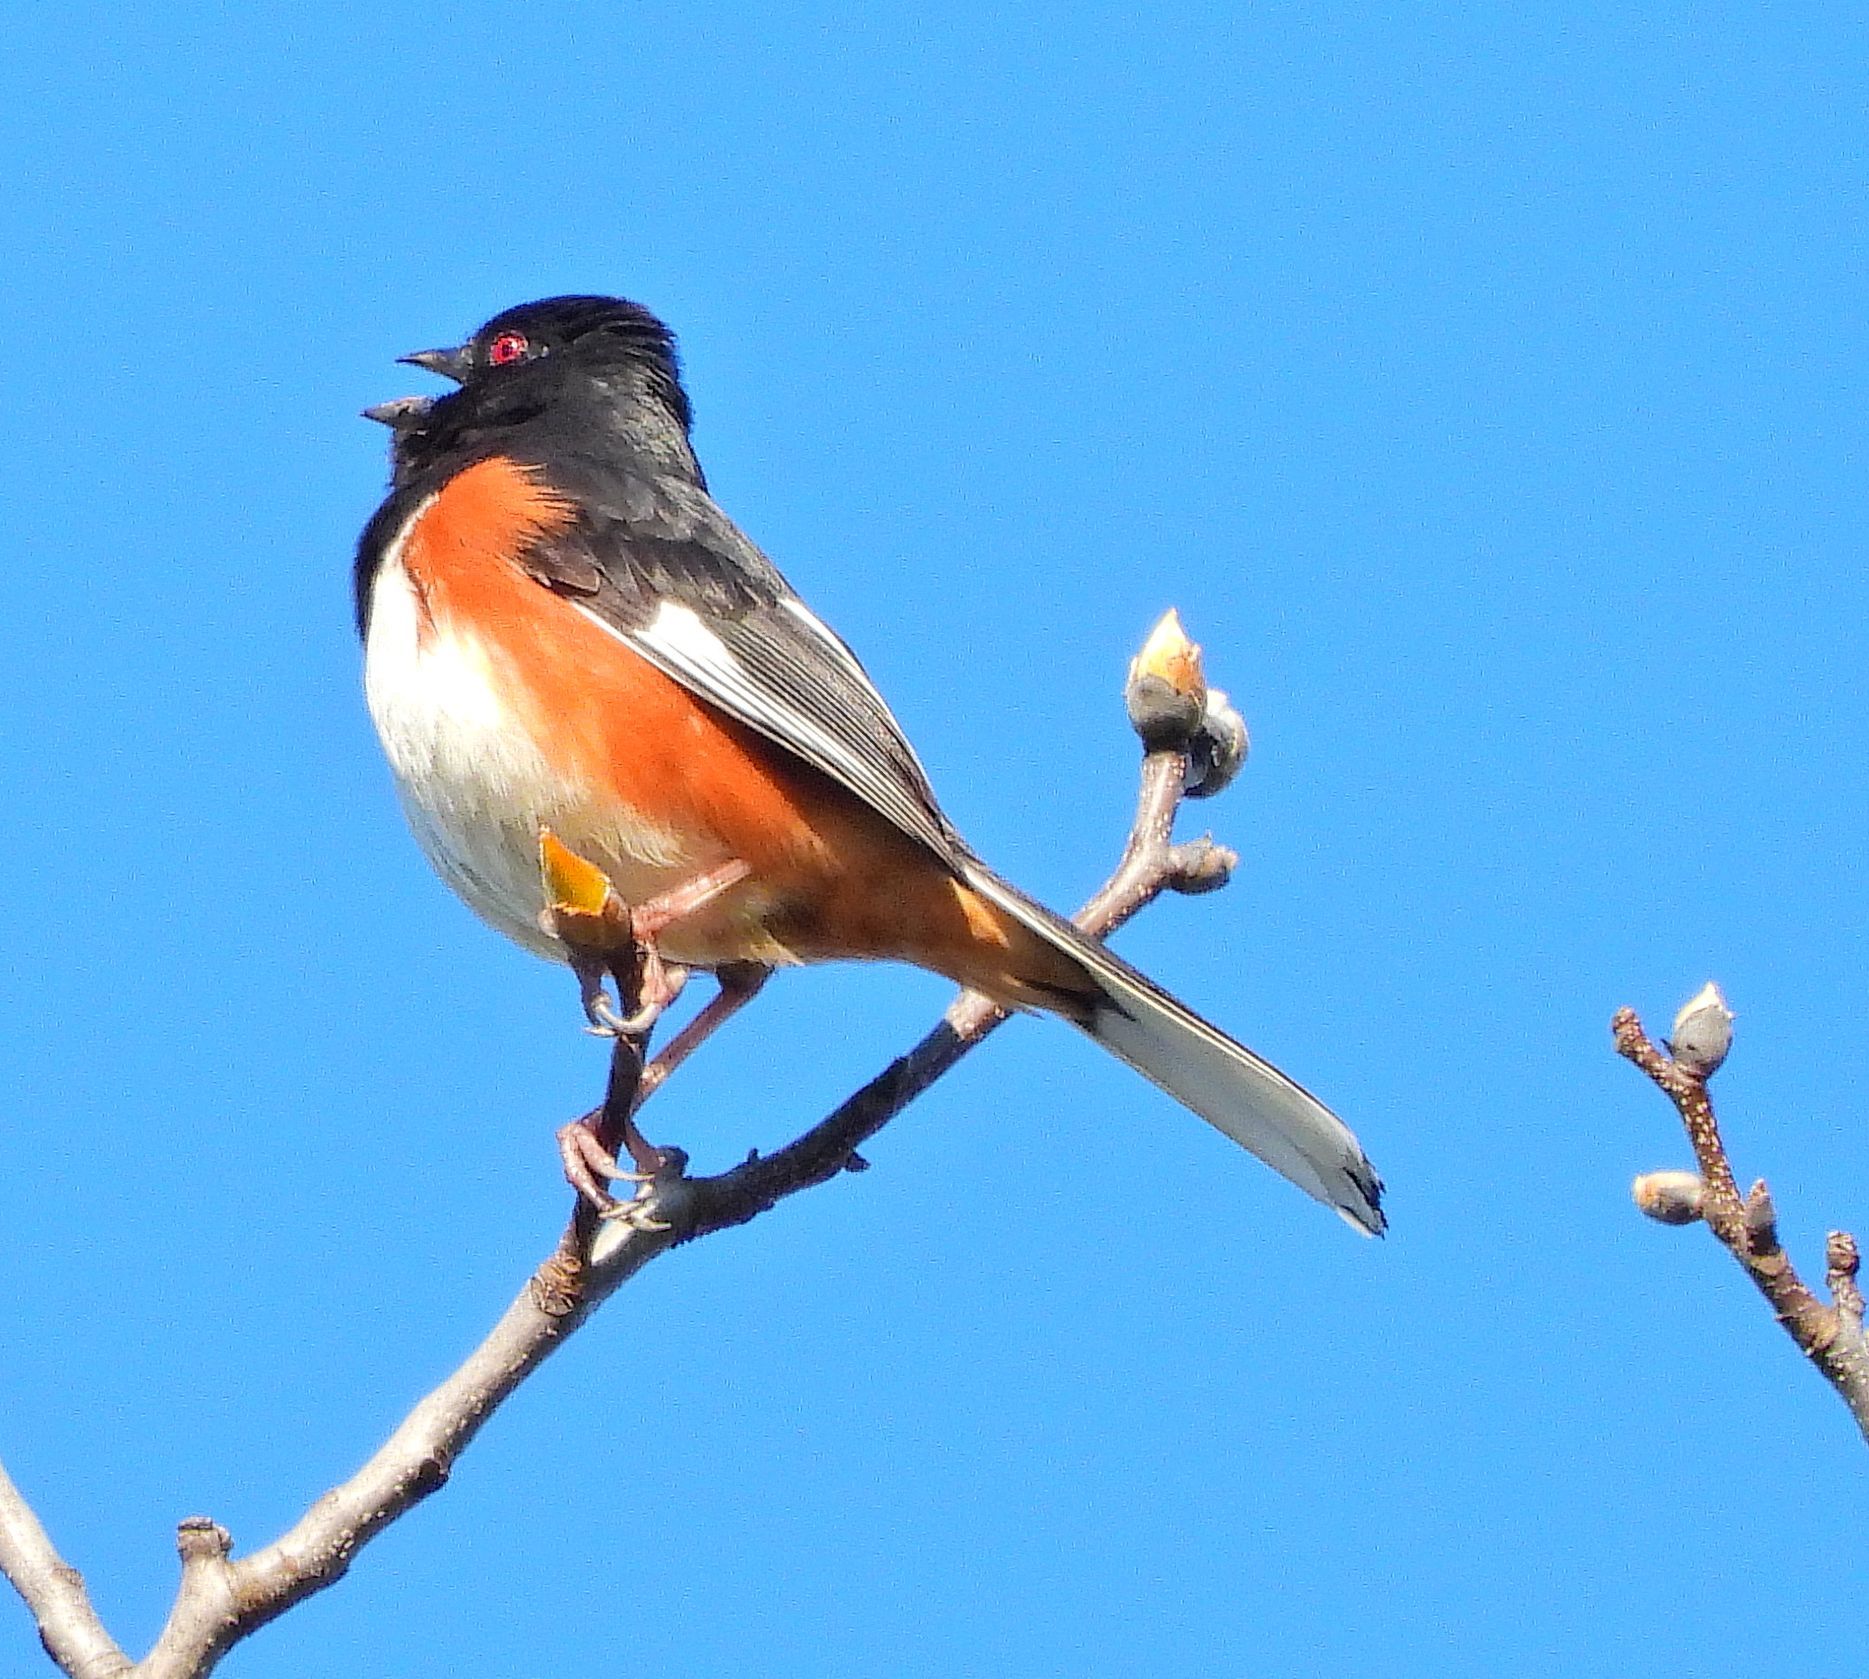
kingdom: Animalia
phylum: Chordata
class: Aves
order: Passeriformes
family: Passerellidae
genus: Pipilo
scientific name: Pipilo erythrophthalmus
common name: Eastern towhee
